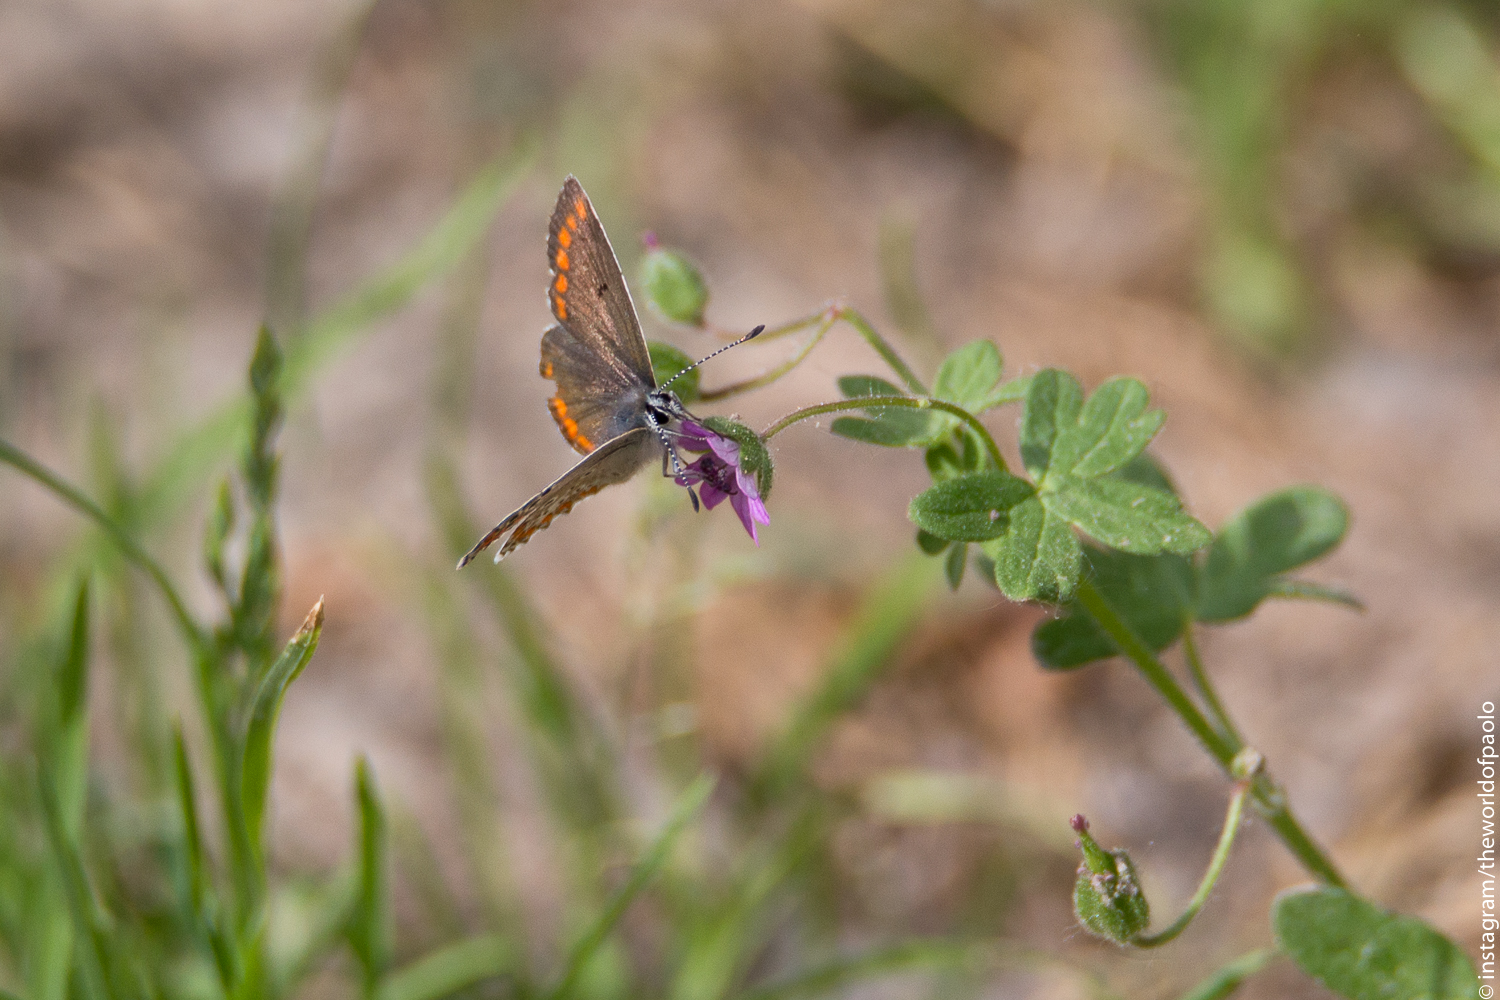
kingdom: Animalia
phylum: Arthropoda
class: Insecta
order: Lepidoptera
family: Lycaenidae
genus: Aricia
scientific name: Aricia agestis
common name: Brown argus
